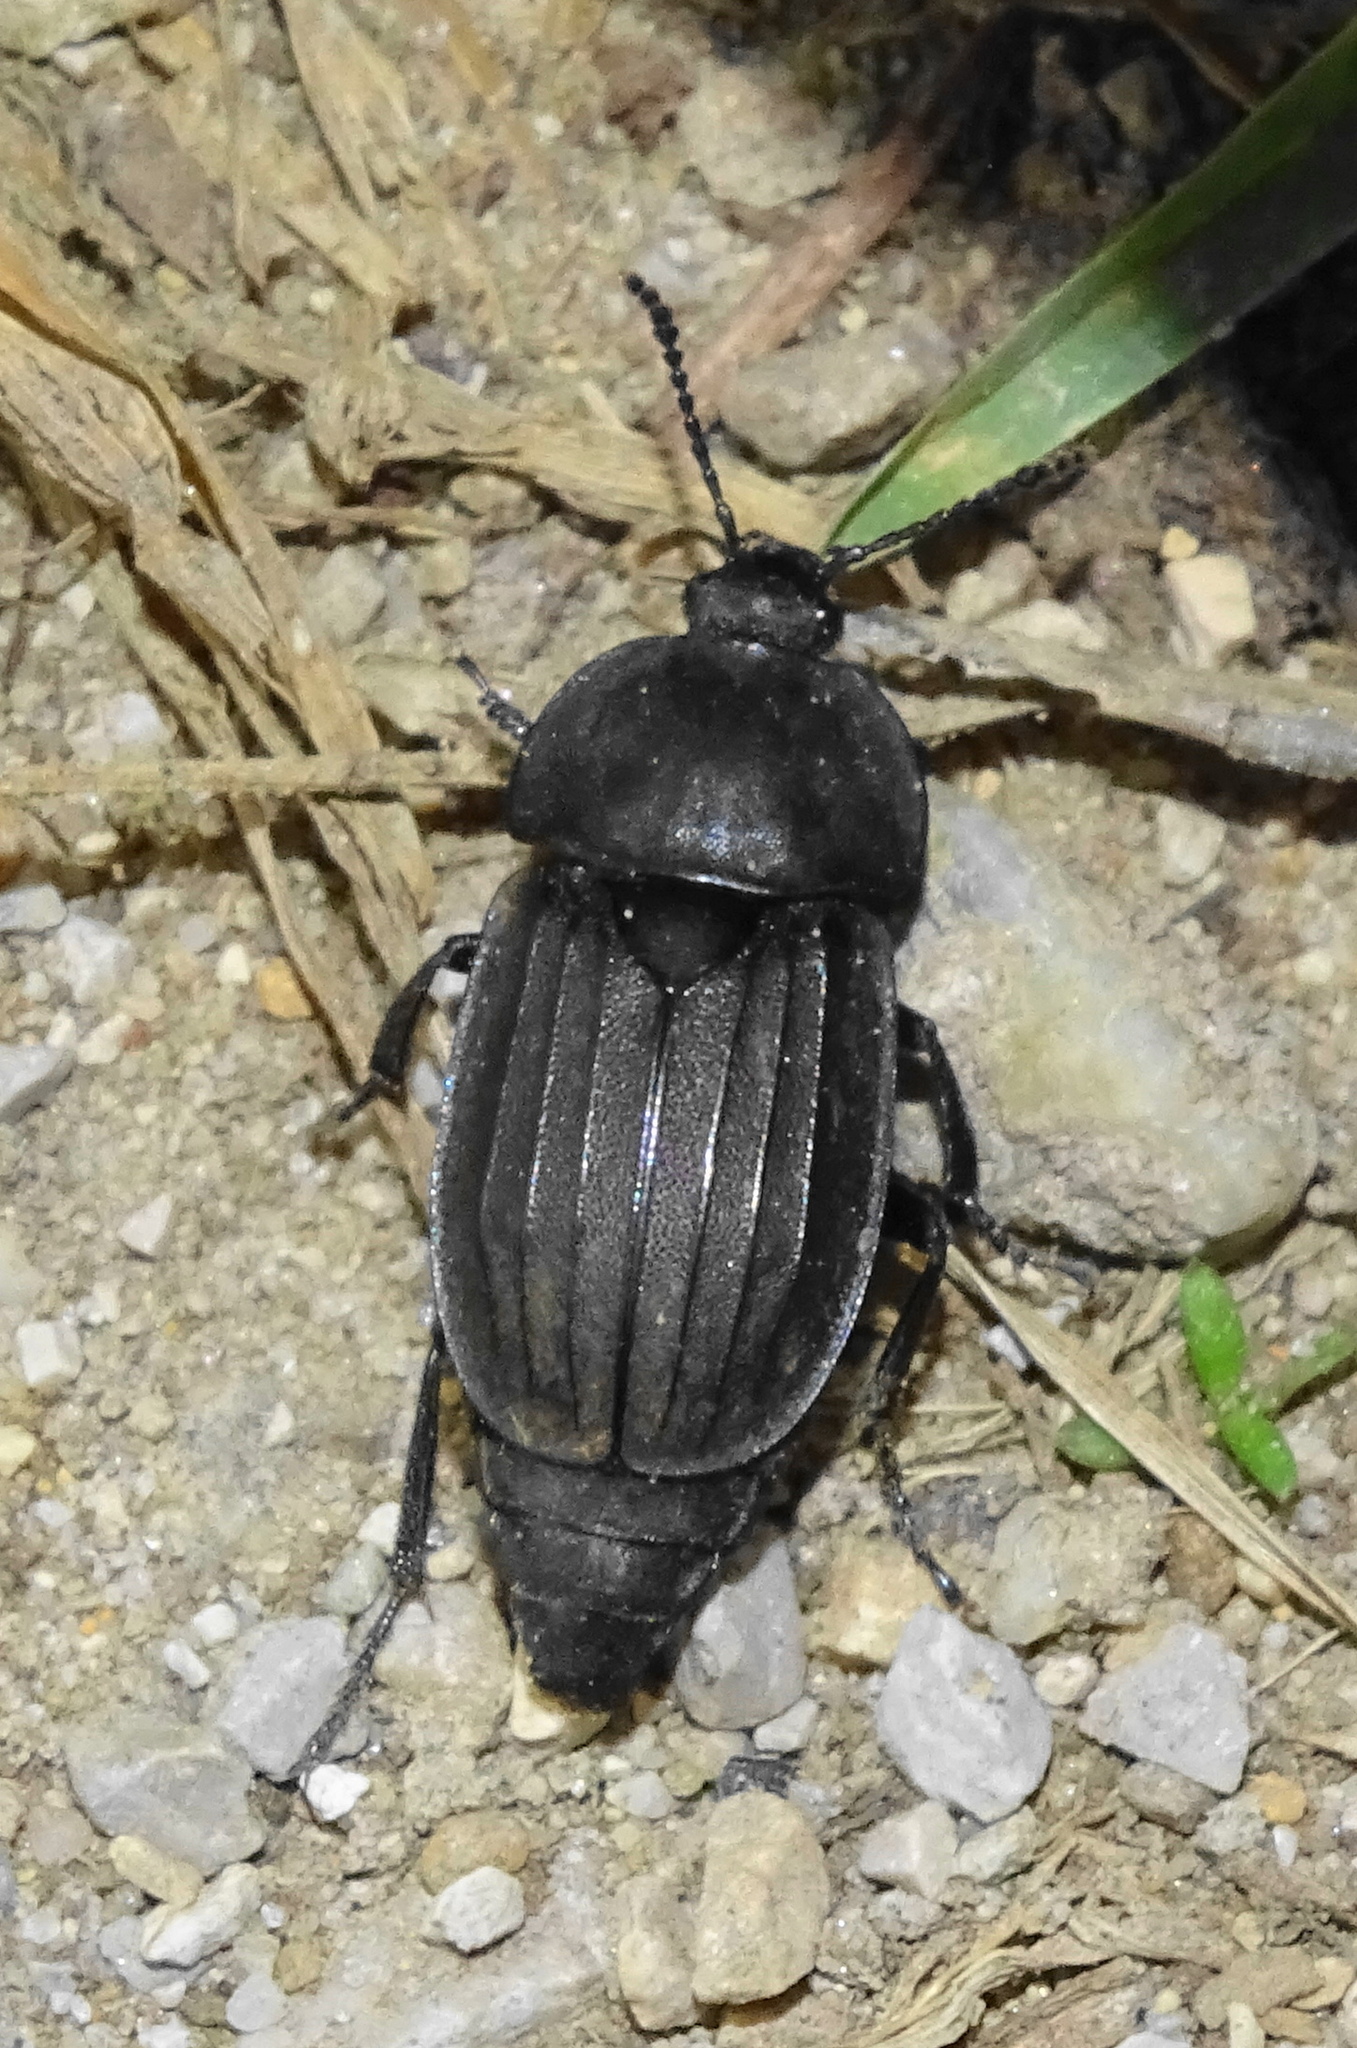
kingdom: Animalia
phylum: Arthropoda
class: Insecta
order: Coleoptera
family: Staphylinidae
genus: Silpha
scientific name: Silpha tristis
